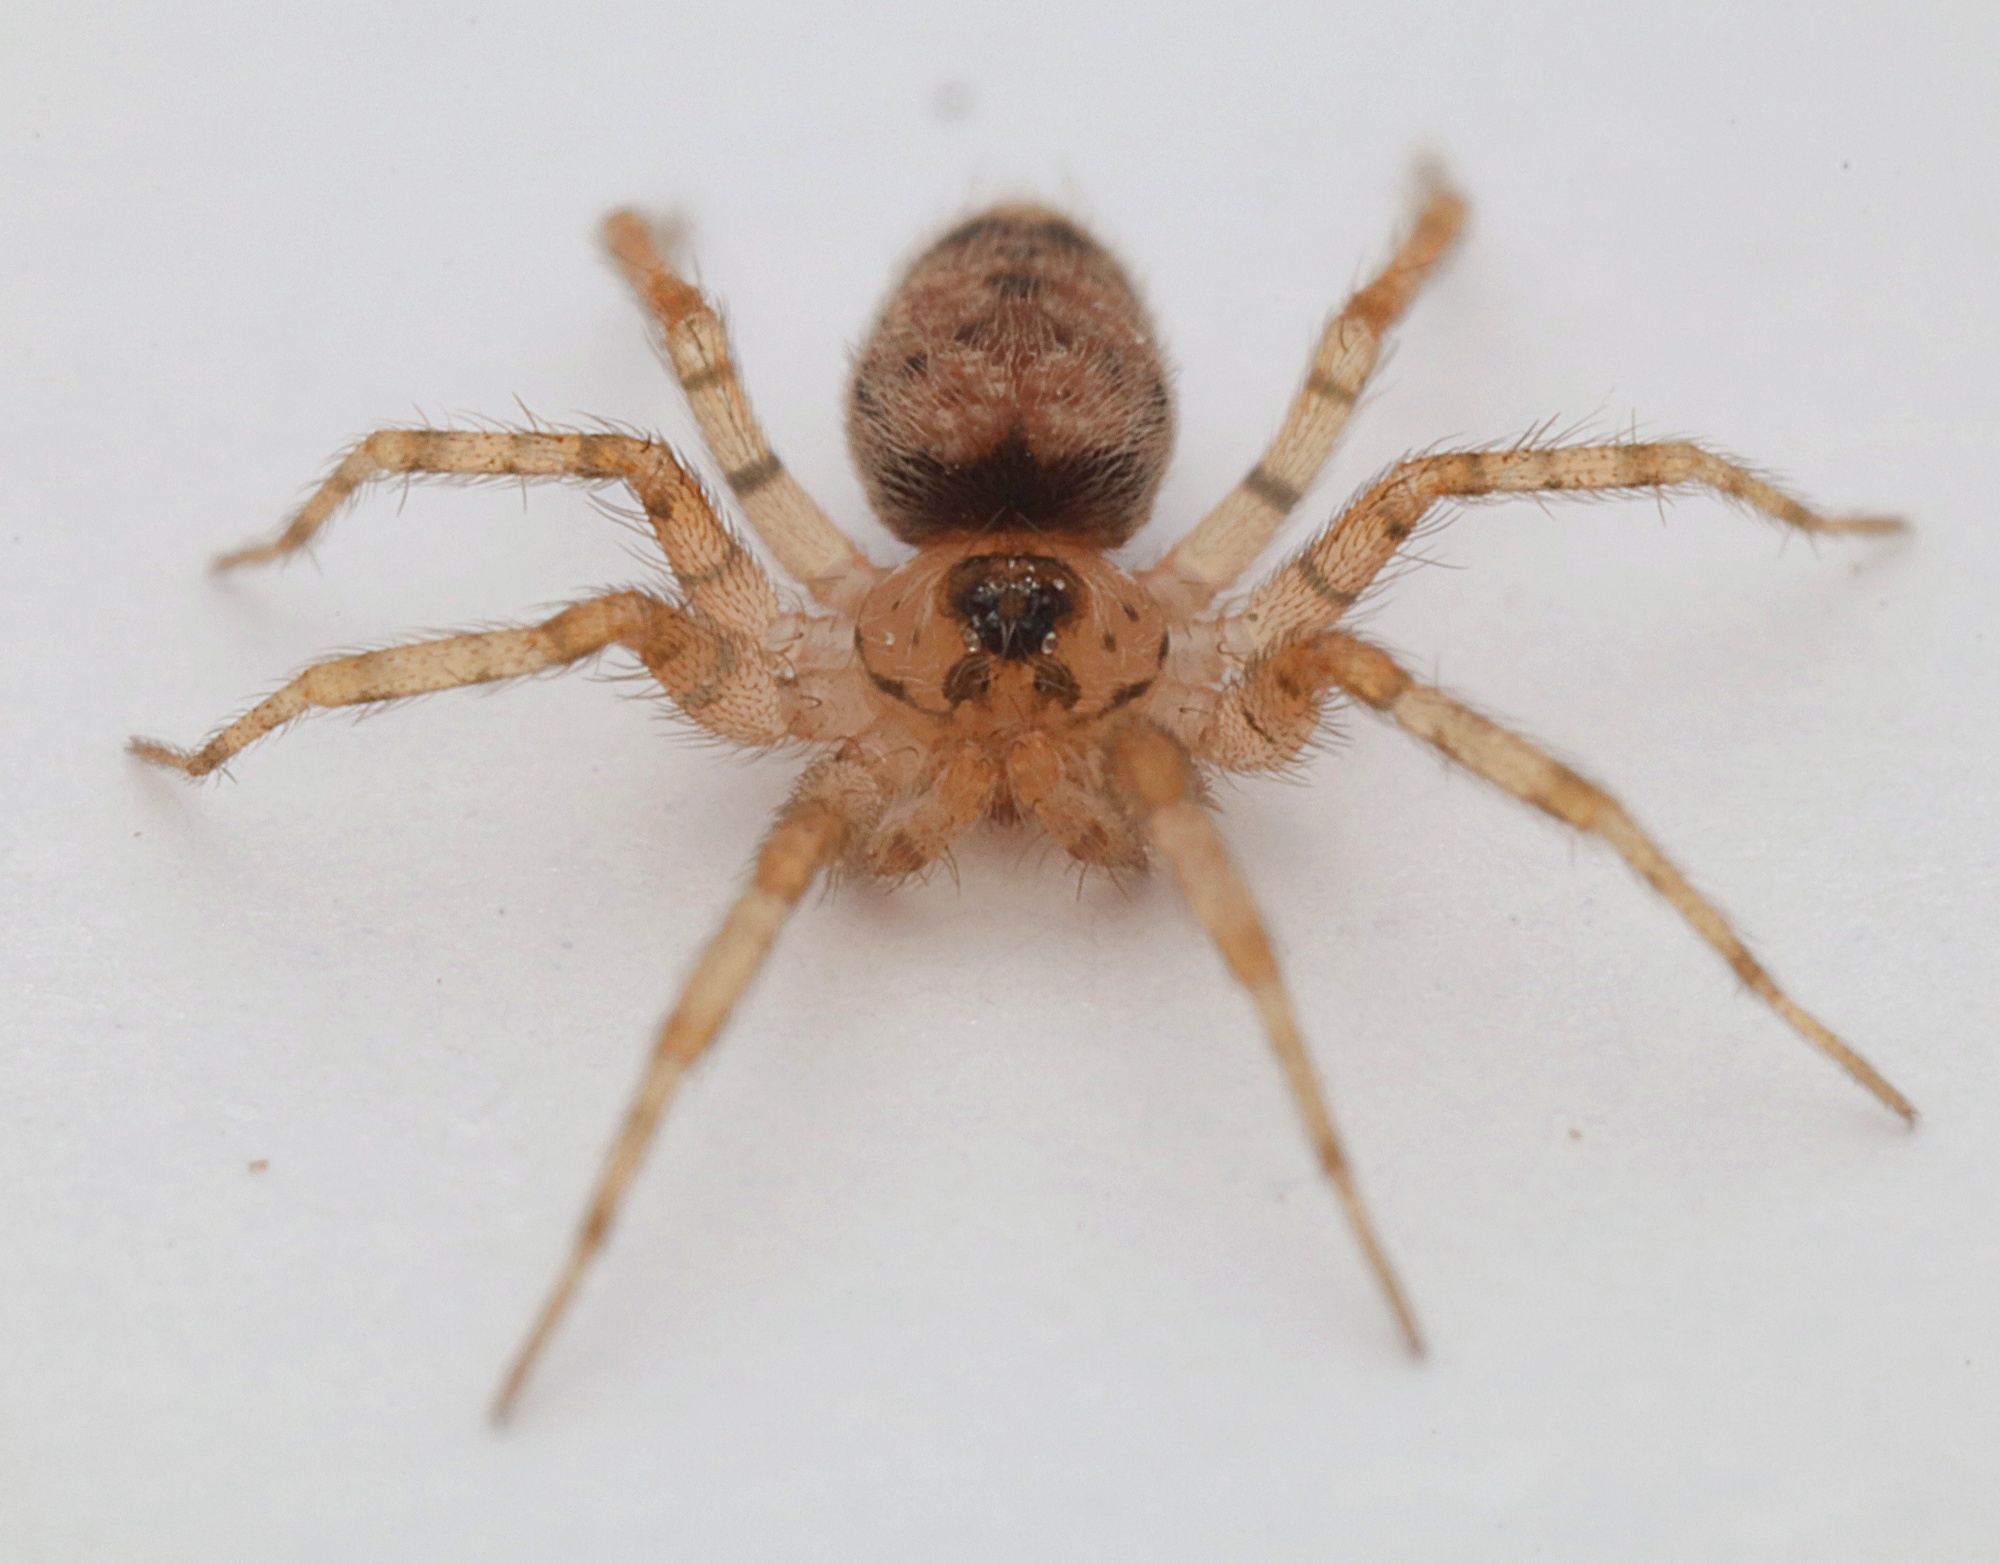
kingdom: Animalia
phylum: Arthropoda
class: Arachnida
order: Araneae
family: Oecobiidae
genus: Oecobius
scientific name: Oecobius navus
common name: Flatmesh weaver
